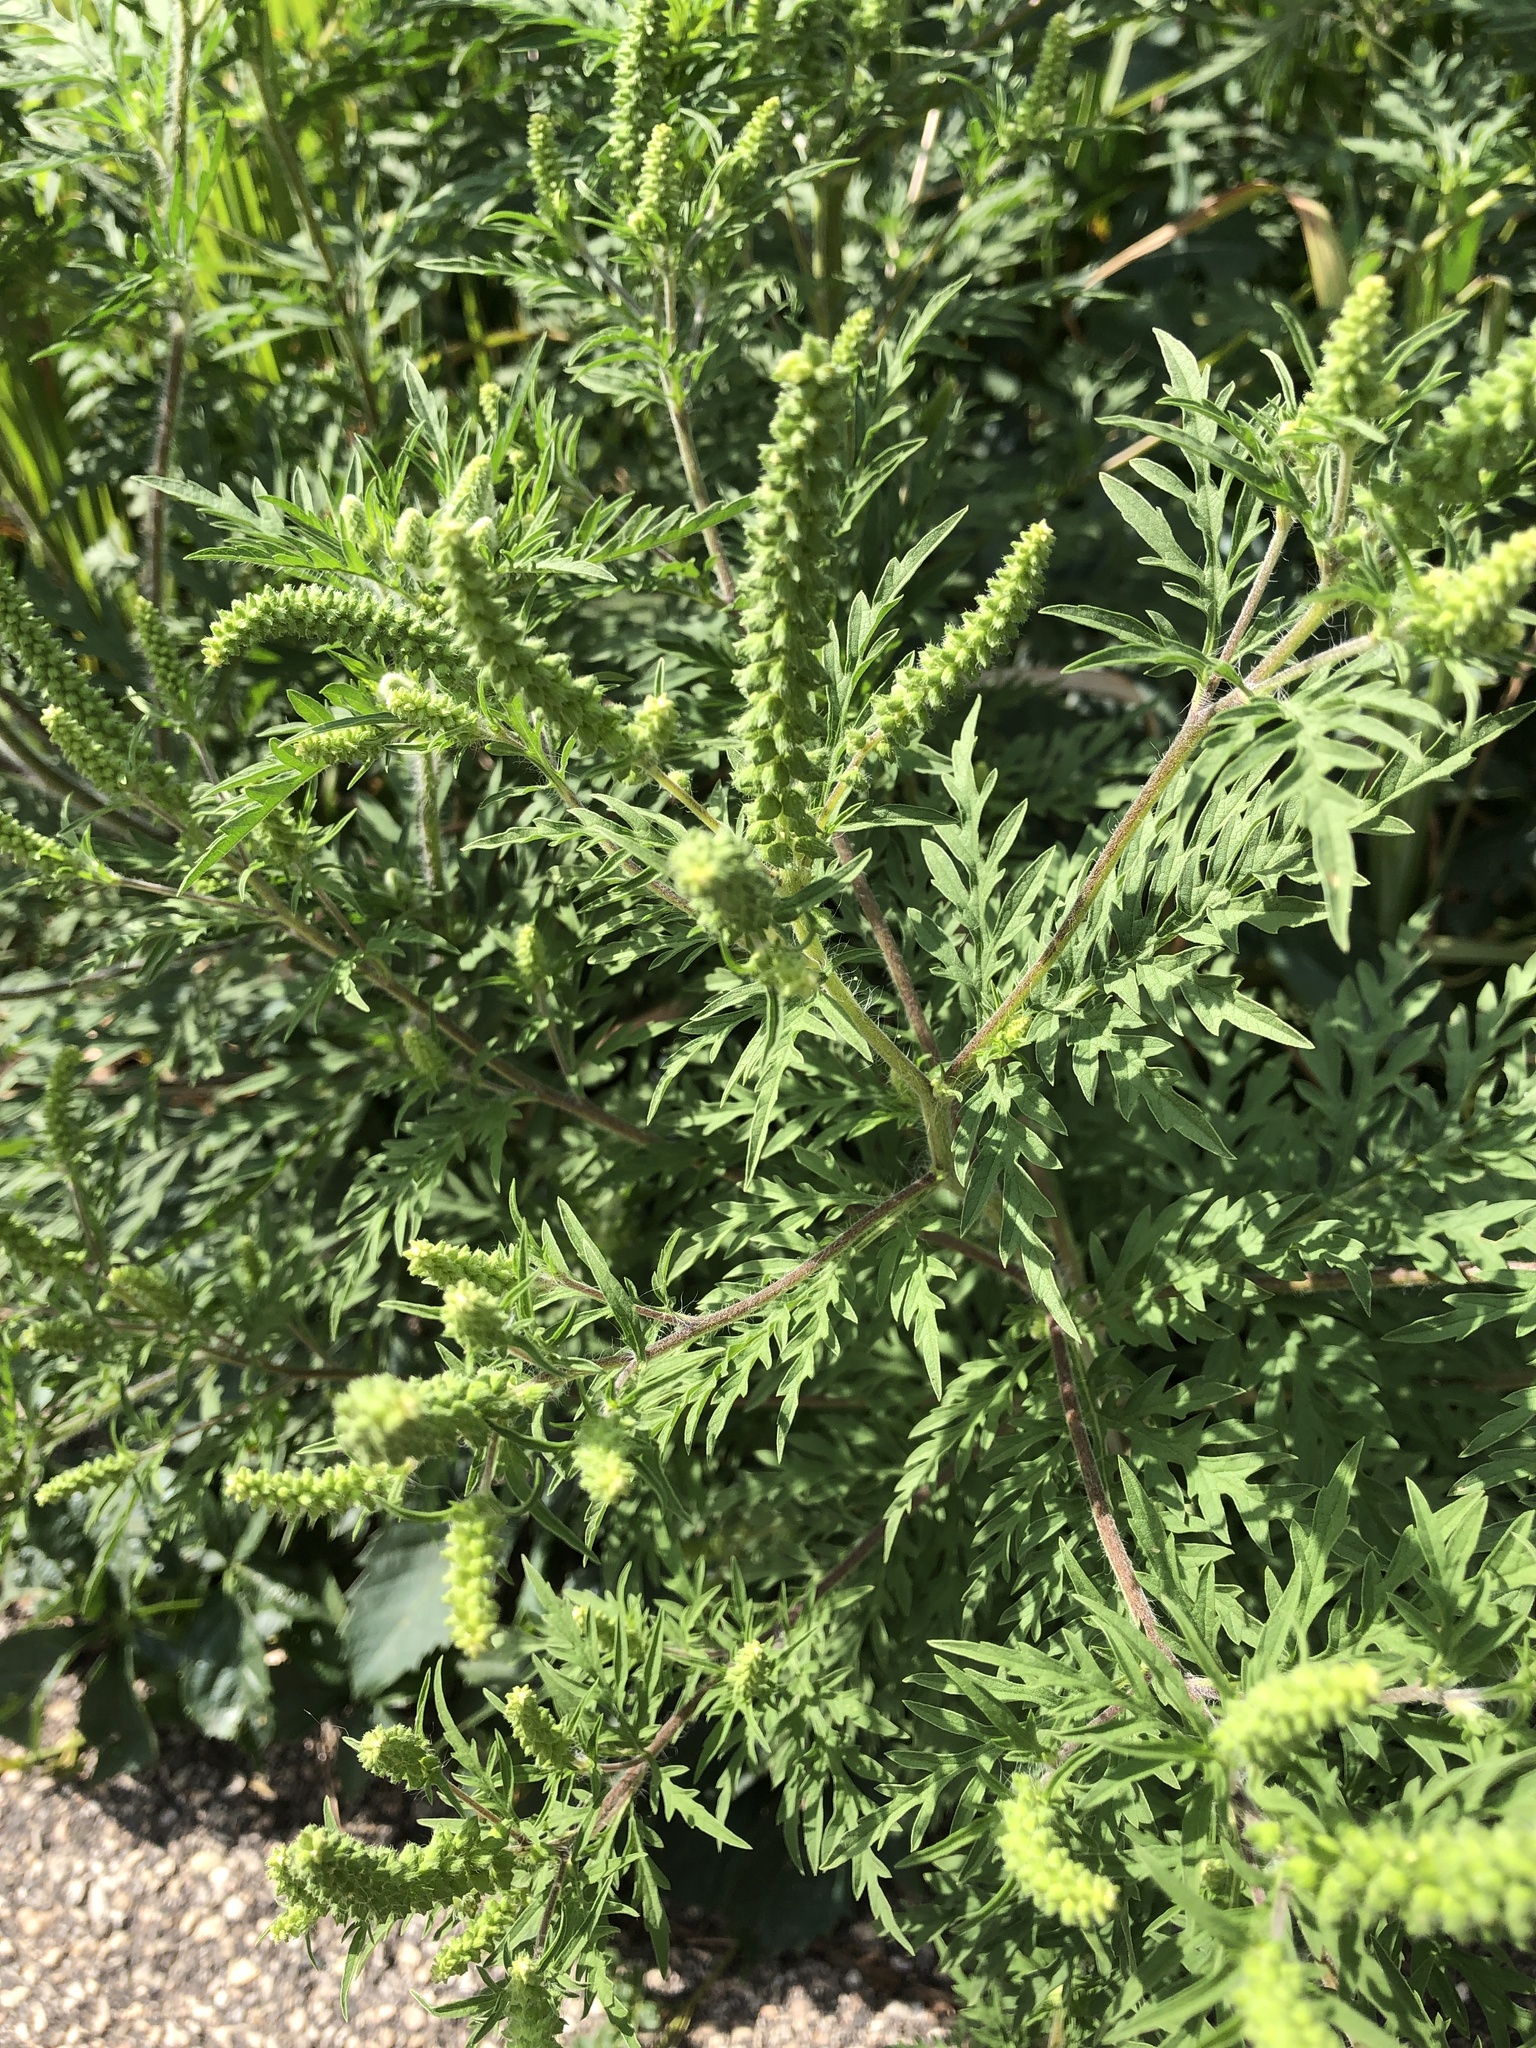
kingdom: Plantae
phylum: Tracheophyta
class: Magnoliopsida
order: Asterales
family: Asteraceae
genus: Ambrosia
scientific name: Ambrosia artemisiifolia
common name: Annual ragweed
